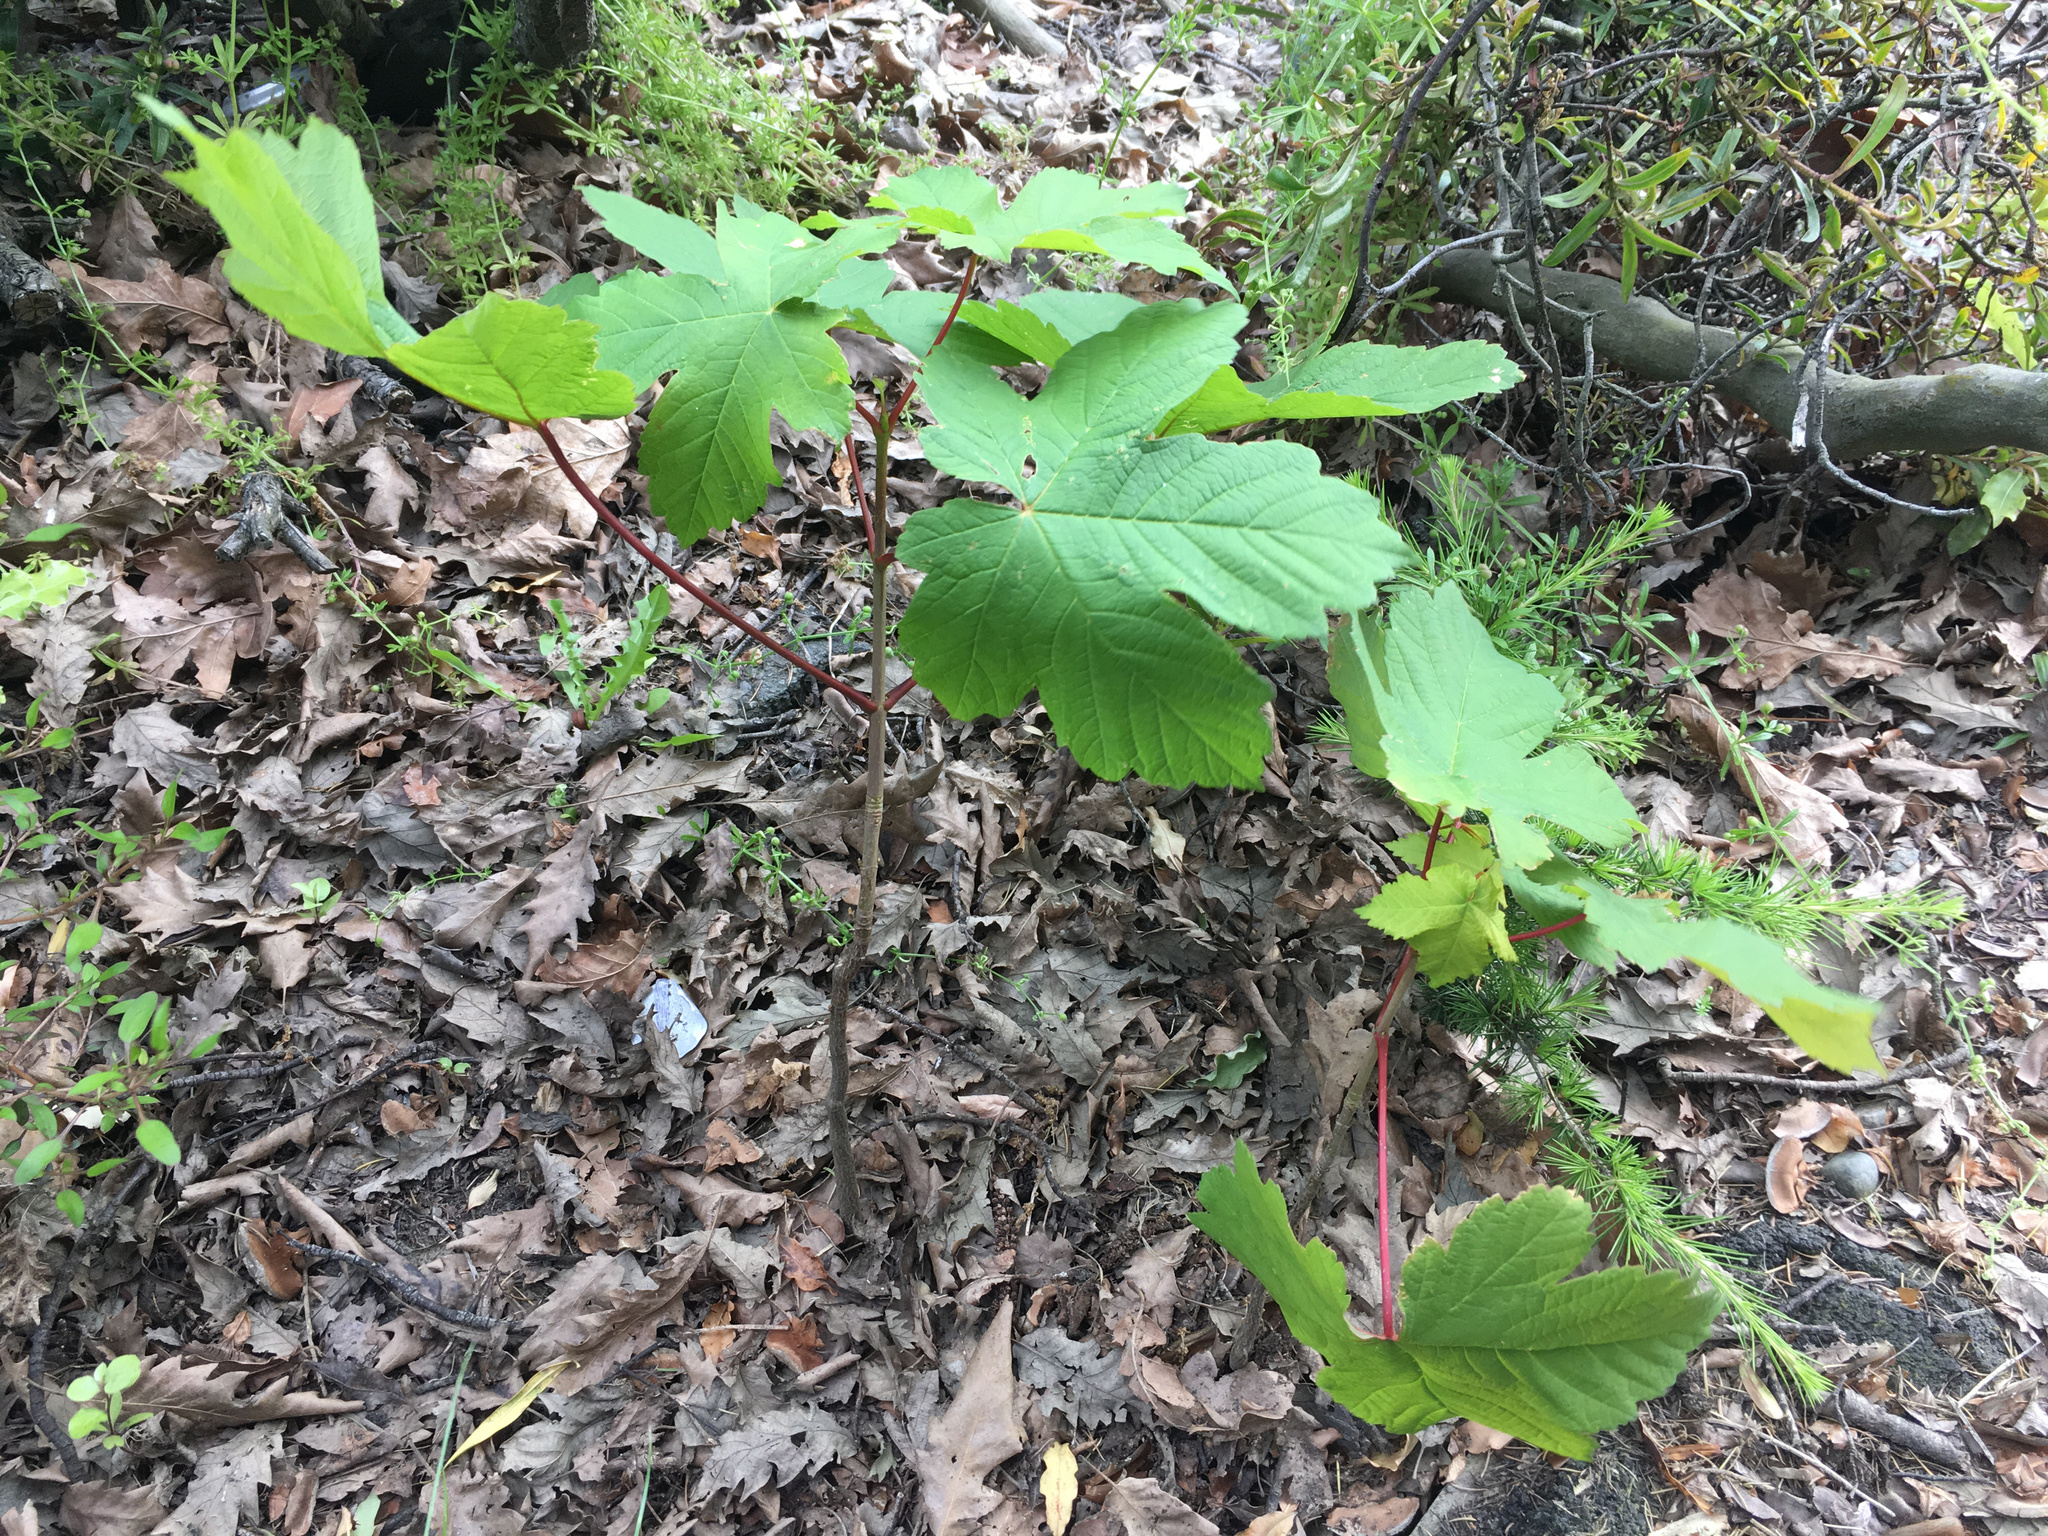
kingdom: Plantae
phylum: Tracheophyta
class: Magnoliopsida
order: Sapindales
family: Sapindaceae
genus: Acer
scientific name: Acer pseudoplatanus
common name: Sycamore
